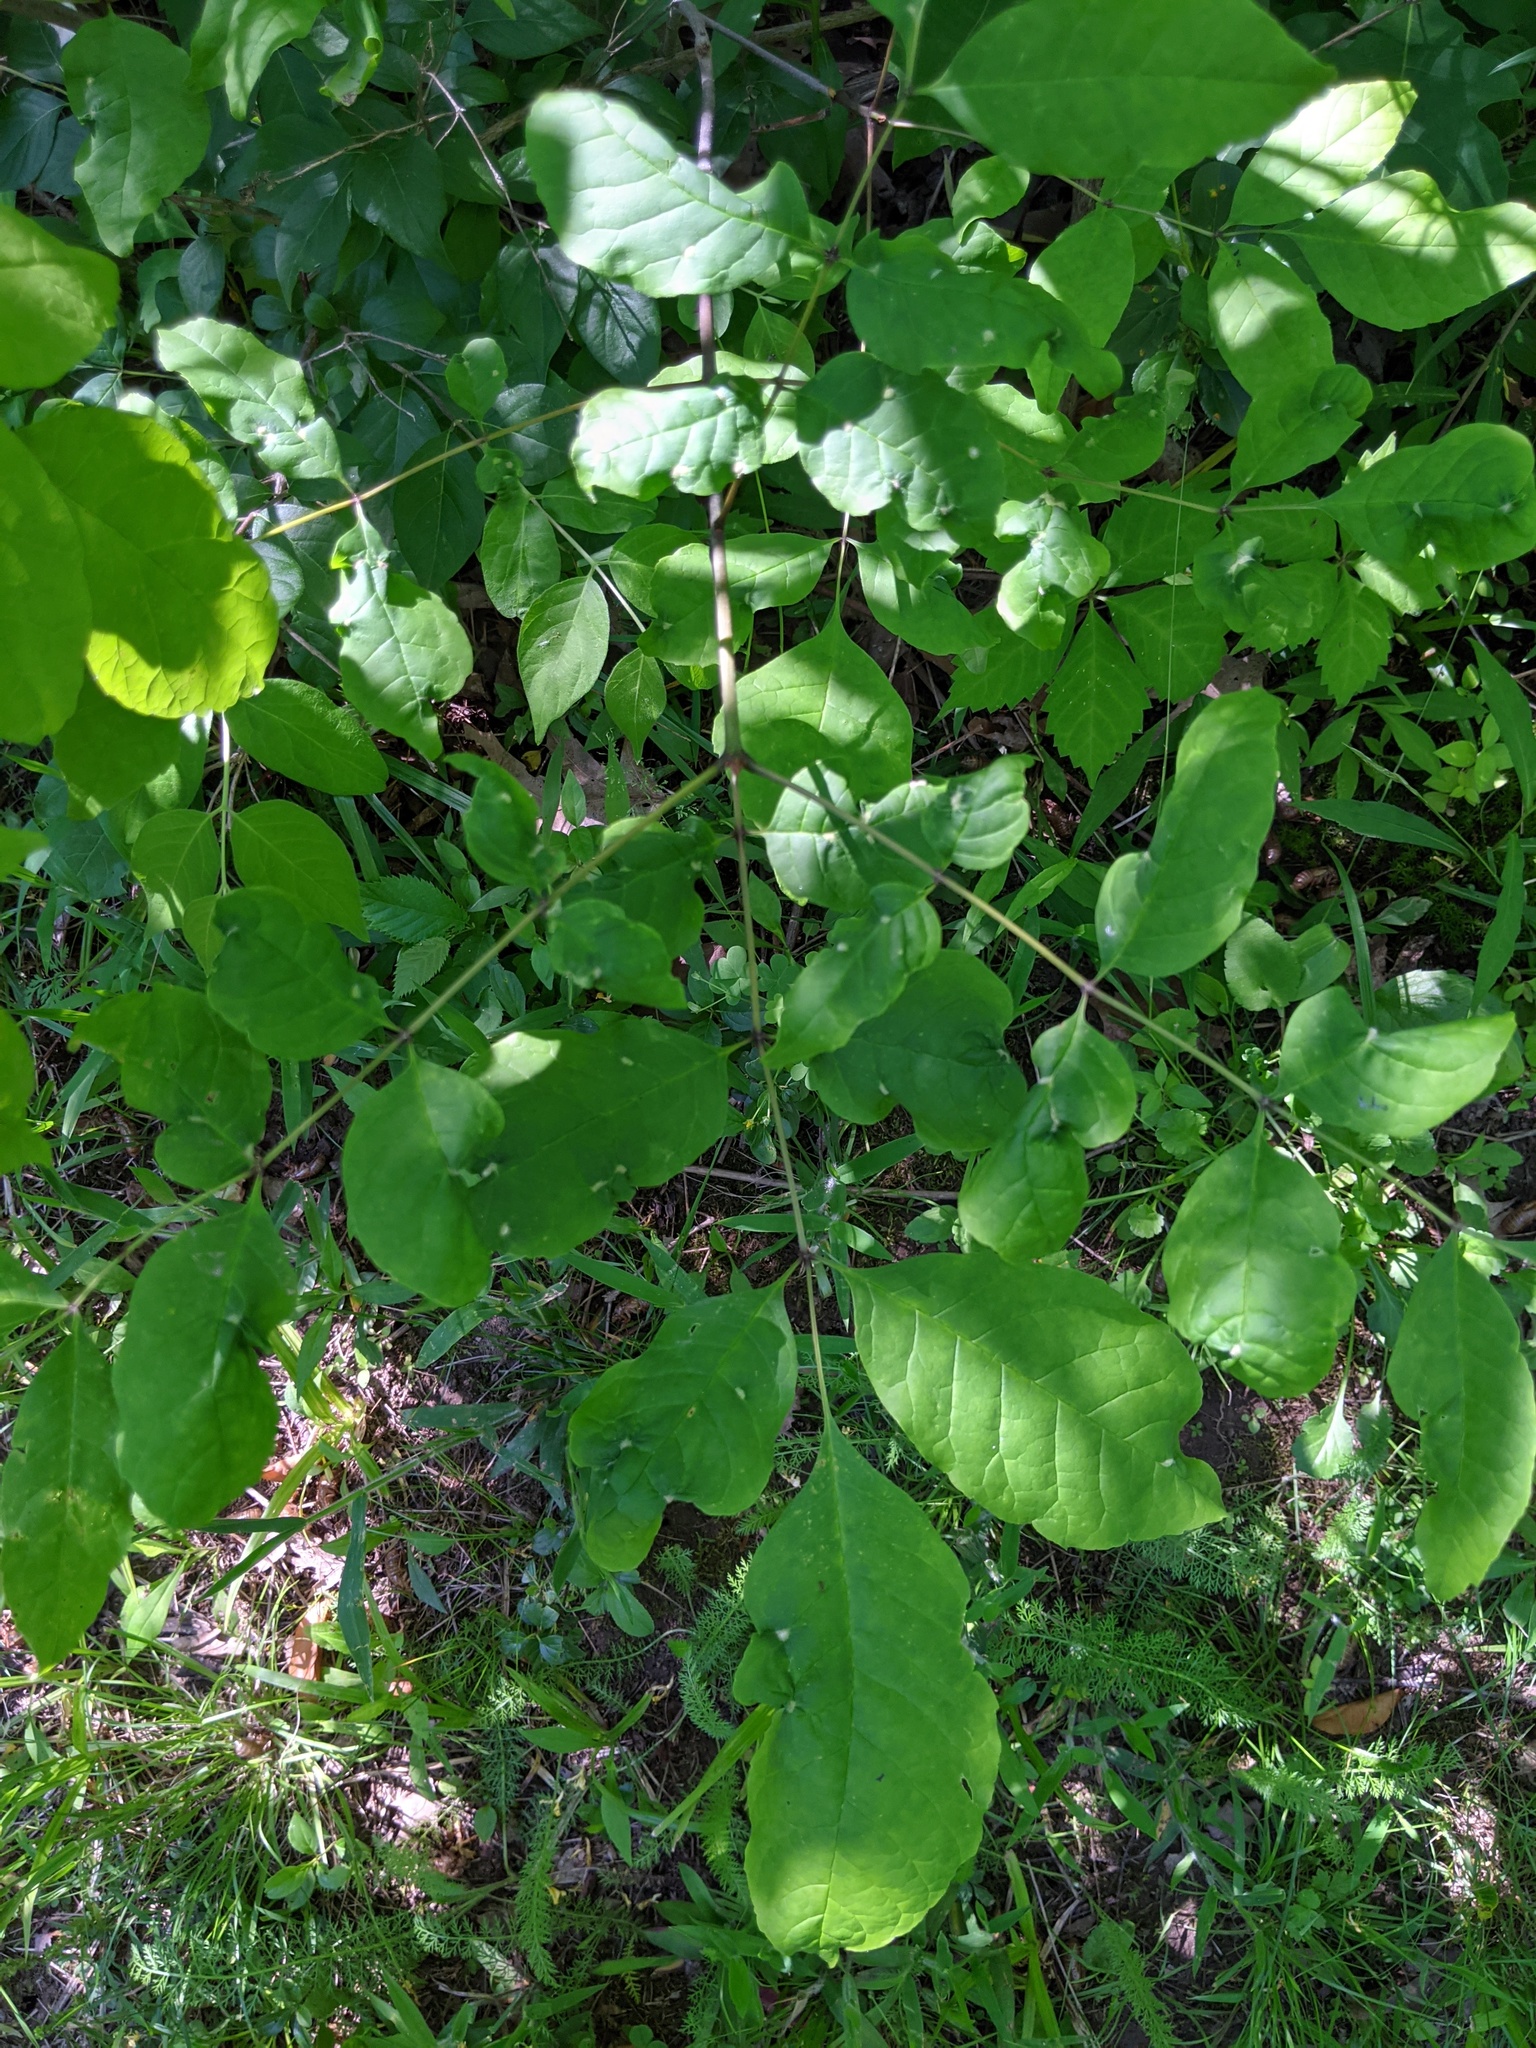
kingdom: Animalia
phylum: Arthropoda
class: Arachnida
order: Trombidiformes
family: Eriophyidae
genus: Aceria
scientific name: Aceria fraxinicola
